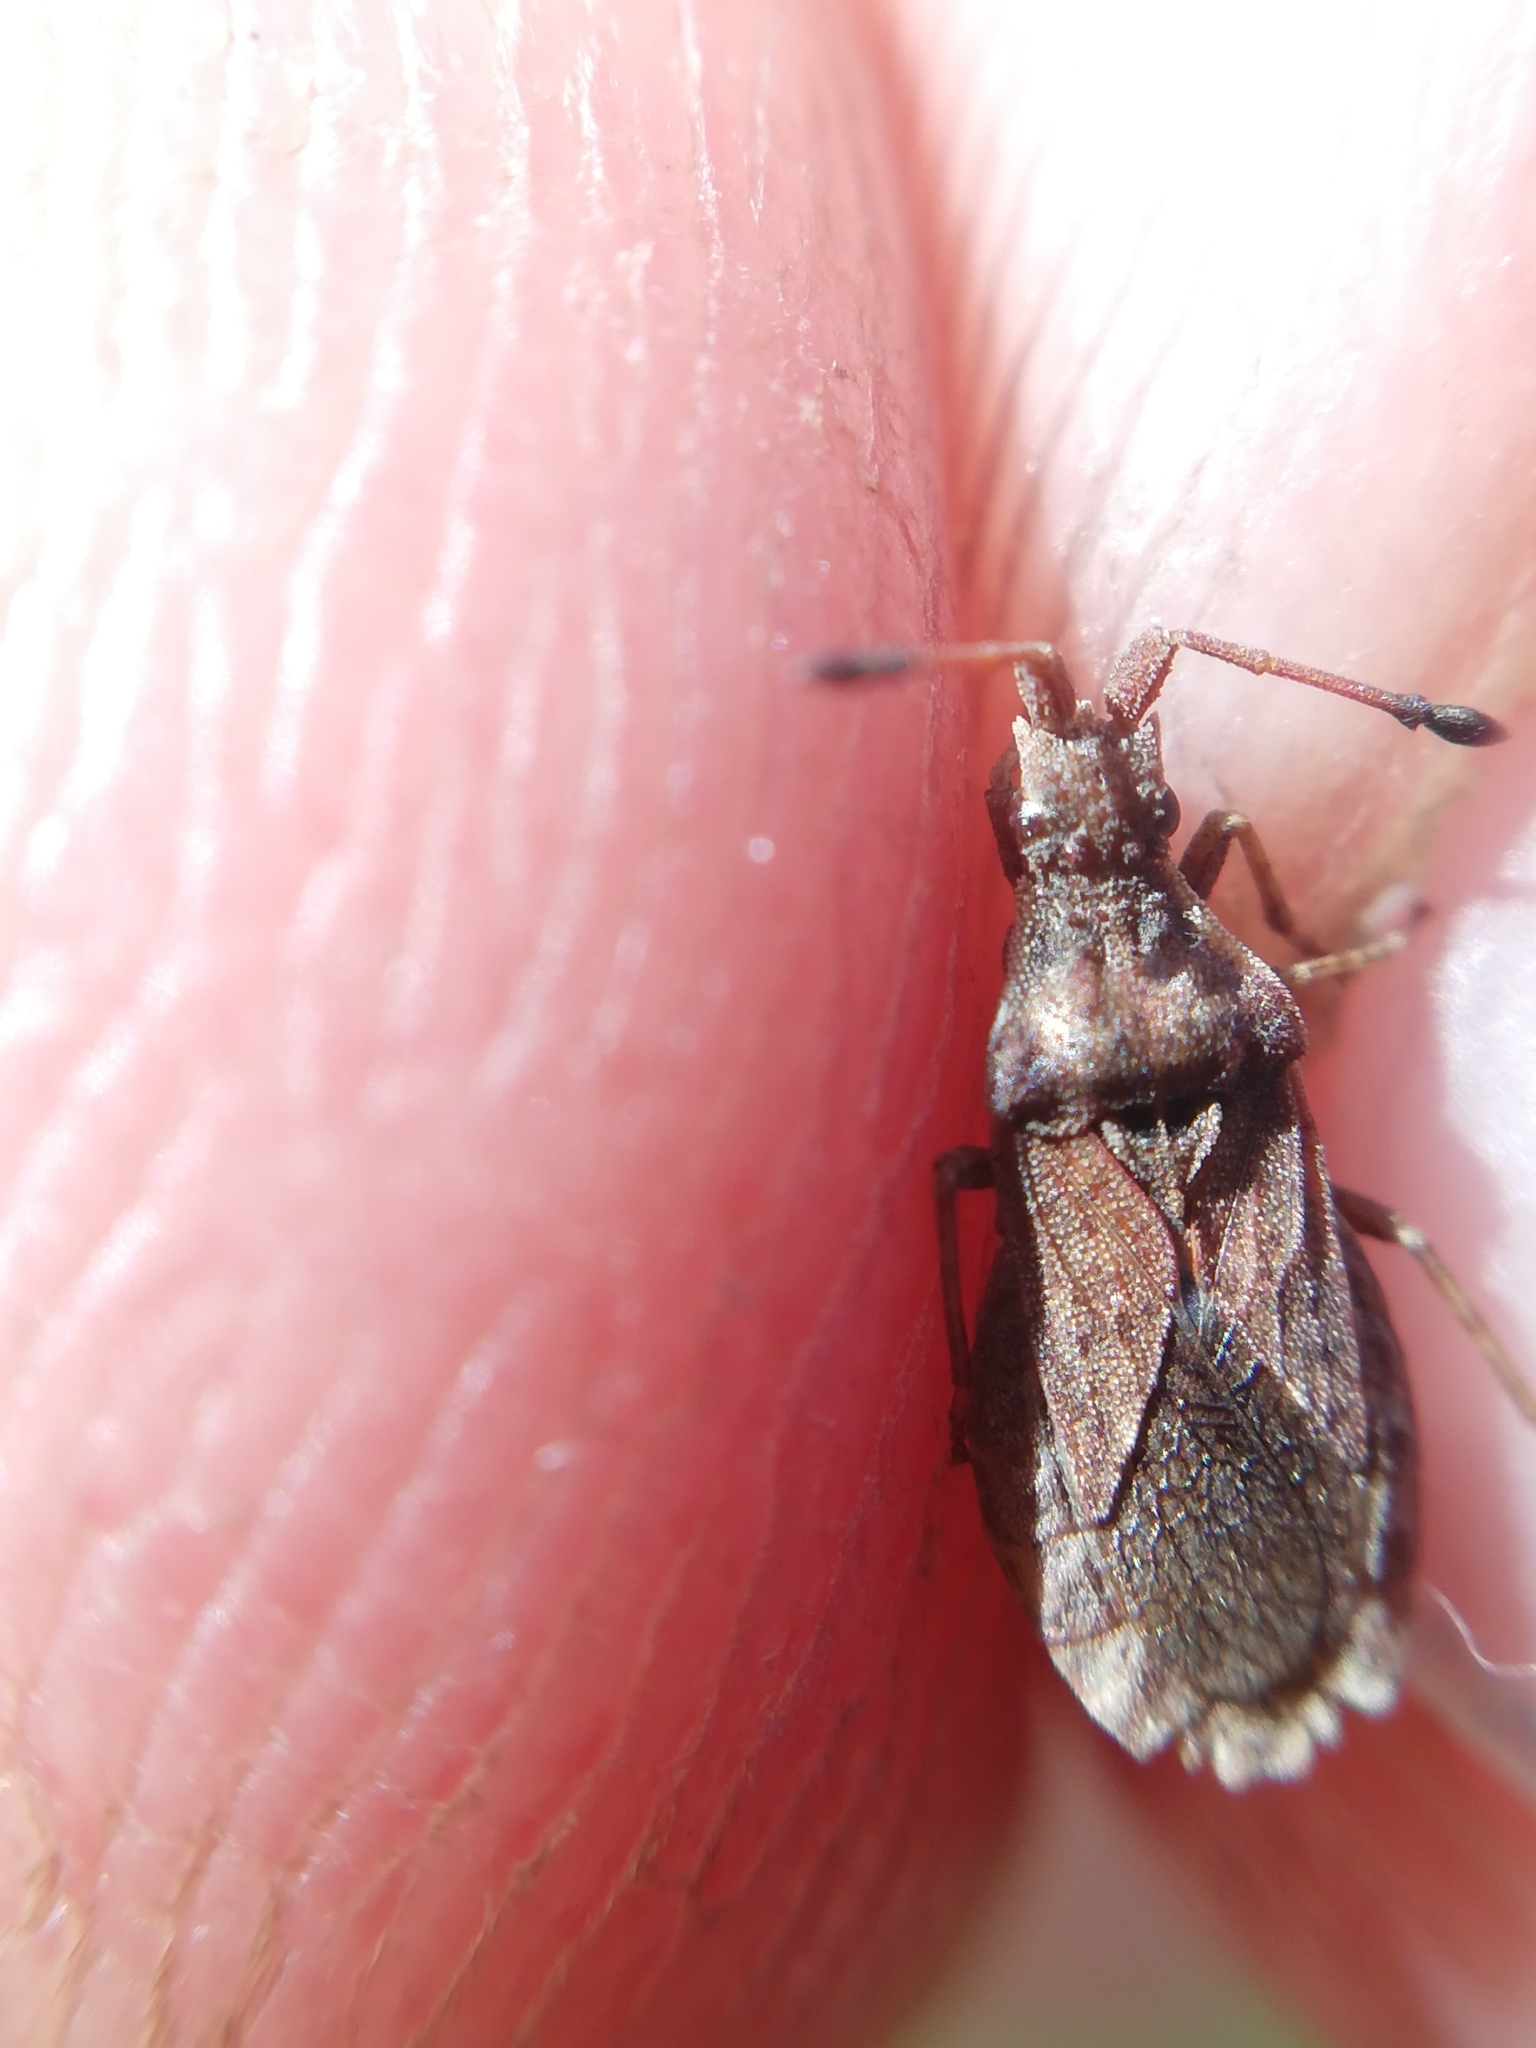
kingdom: Animalia
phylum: Arthropoda
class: Insecta
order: Hemiptera
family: Coreidae
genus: Spathocera
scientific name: Spathocera dalmanii
